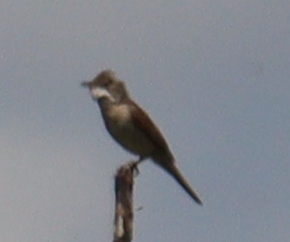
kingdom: Animalia
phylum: Chordata
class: Aves
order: Passeriformes
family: Sylviidae
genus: Sylvia
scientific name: Sylvia communis
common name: Common whitethroat
